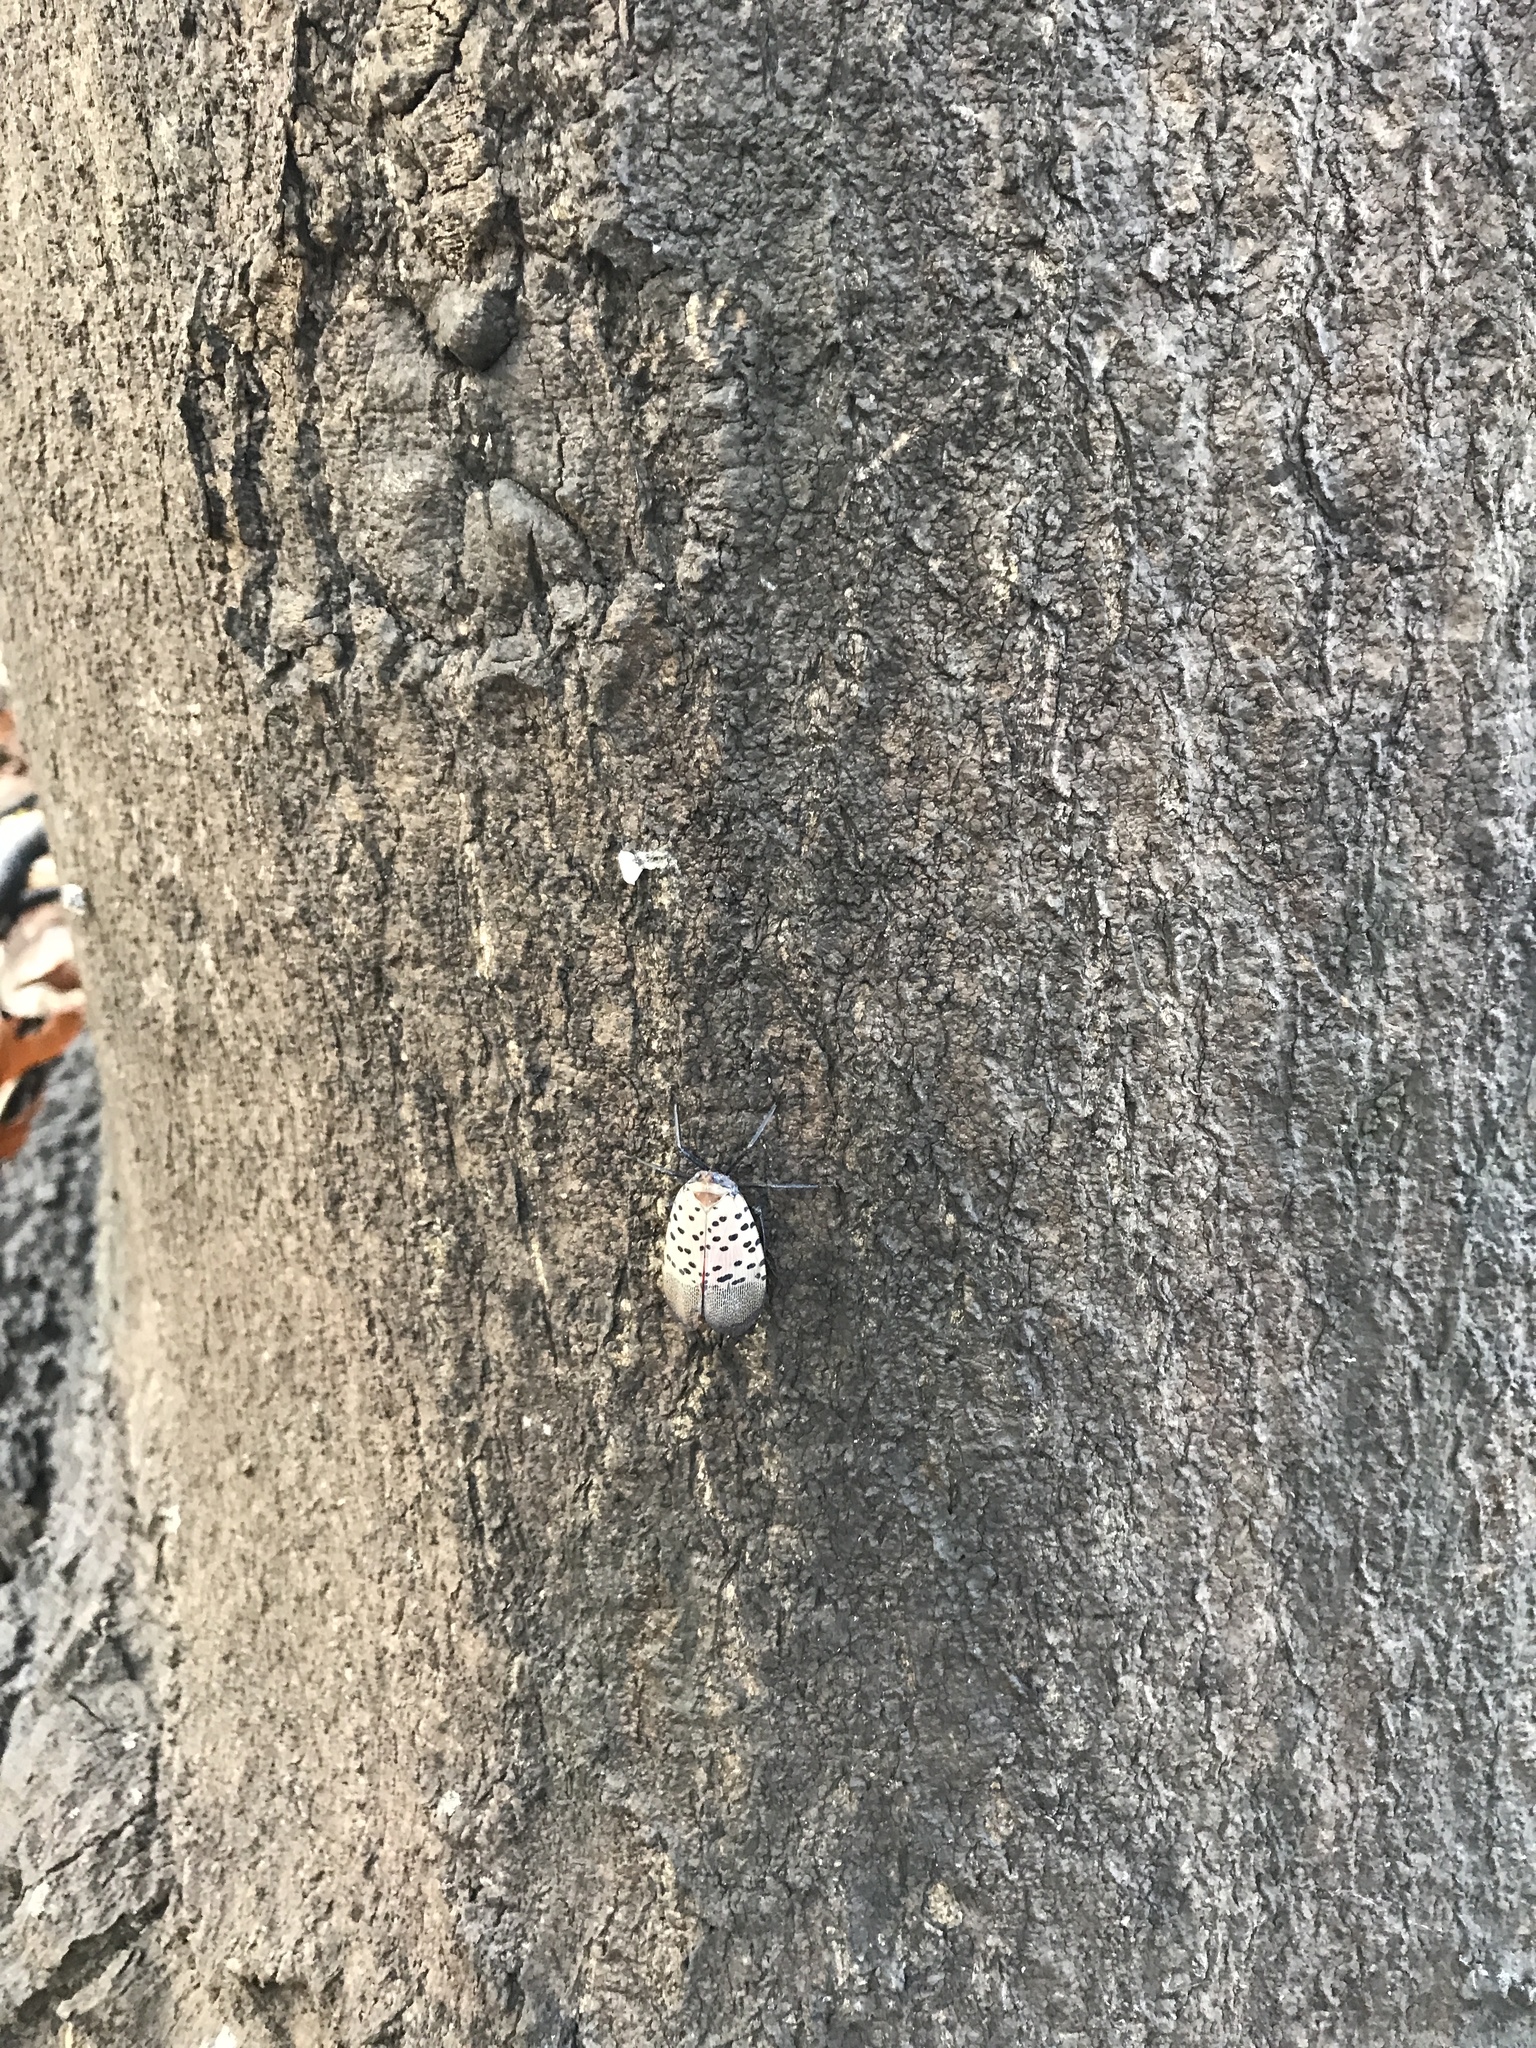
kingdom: Animalia
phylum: Arthropoda
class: Insecta
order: Hemiptera
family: Fulgoridae
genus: Lycorma
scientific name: Lycorma delicatula
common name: Spotted lanternfly
